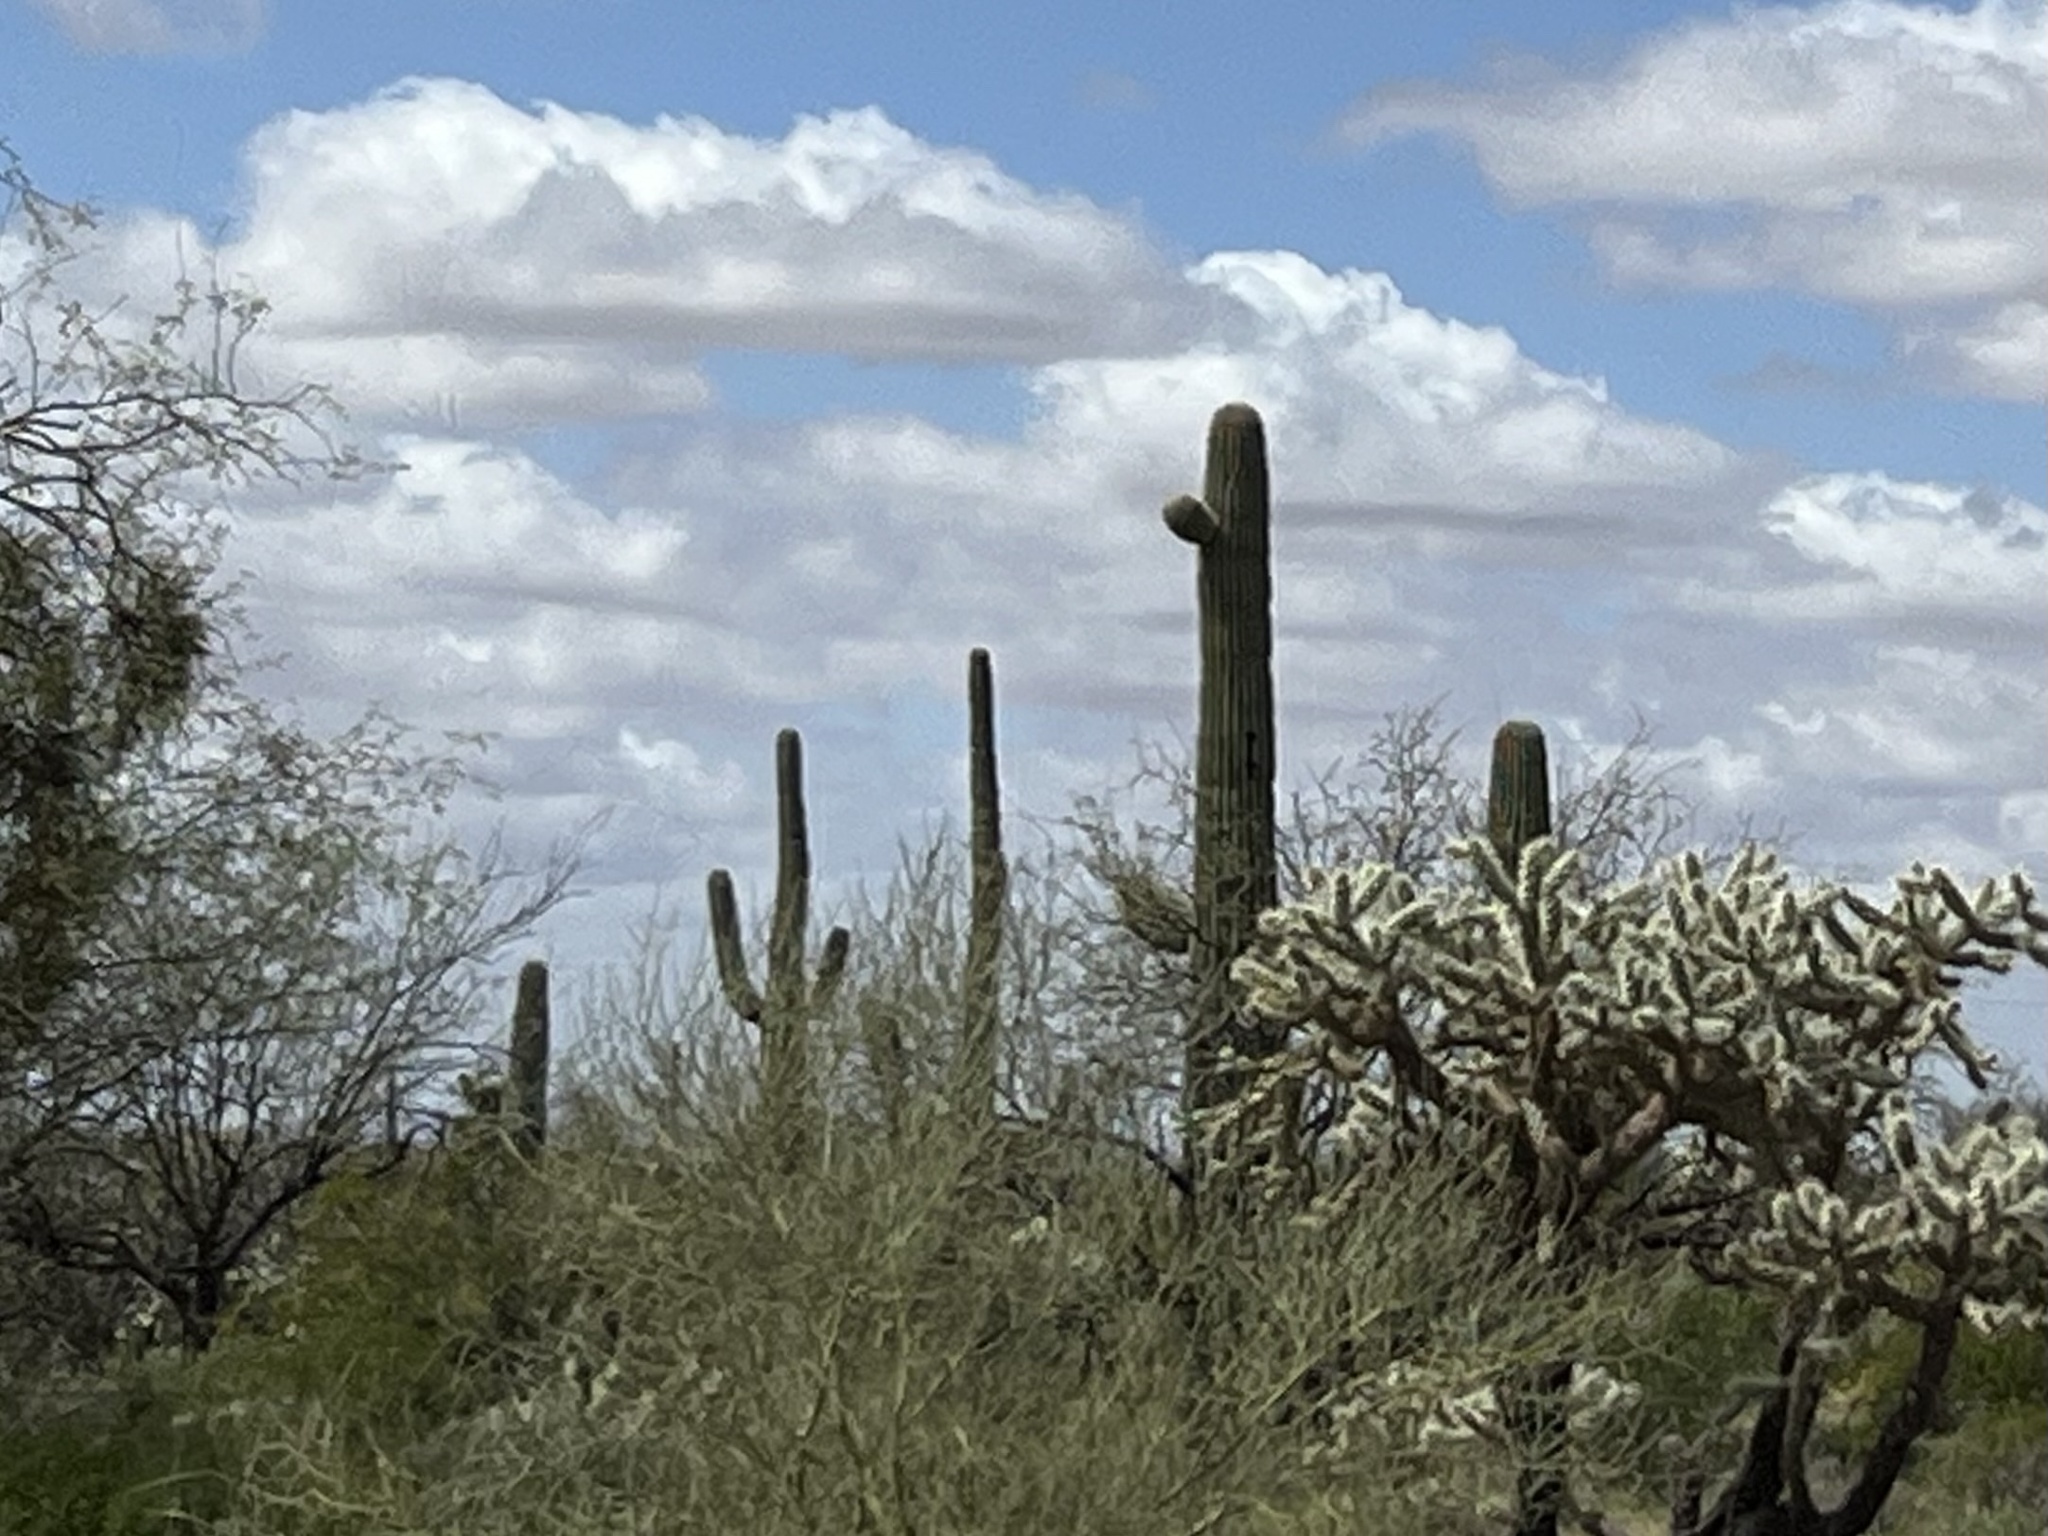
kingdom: Plantae
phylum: Tracheophyta
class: Magnoliopsida
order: Caryophyllales
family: Cactaceae
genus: Carnegiea
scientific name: Carnegiea gigantea
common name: Saguaro
